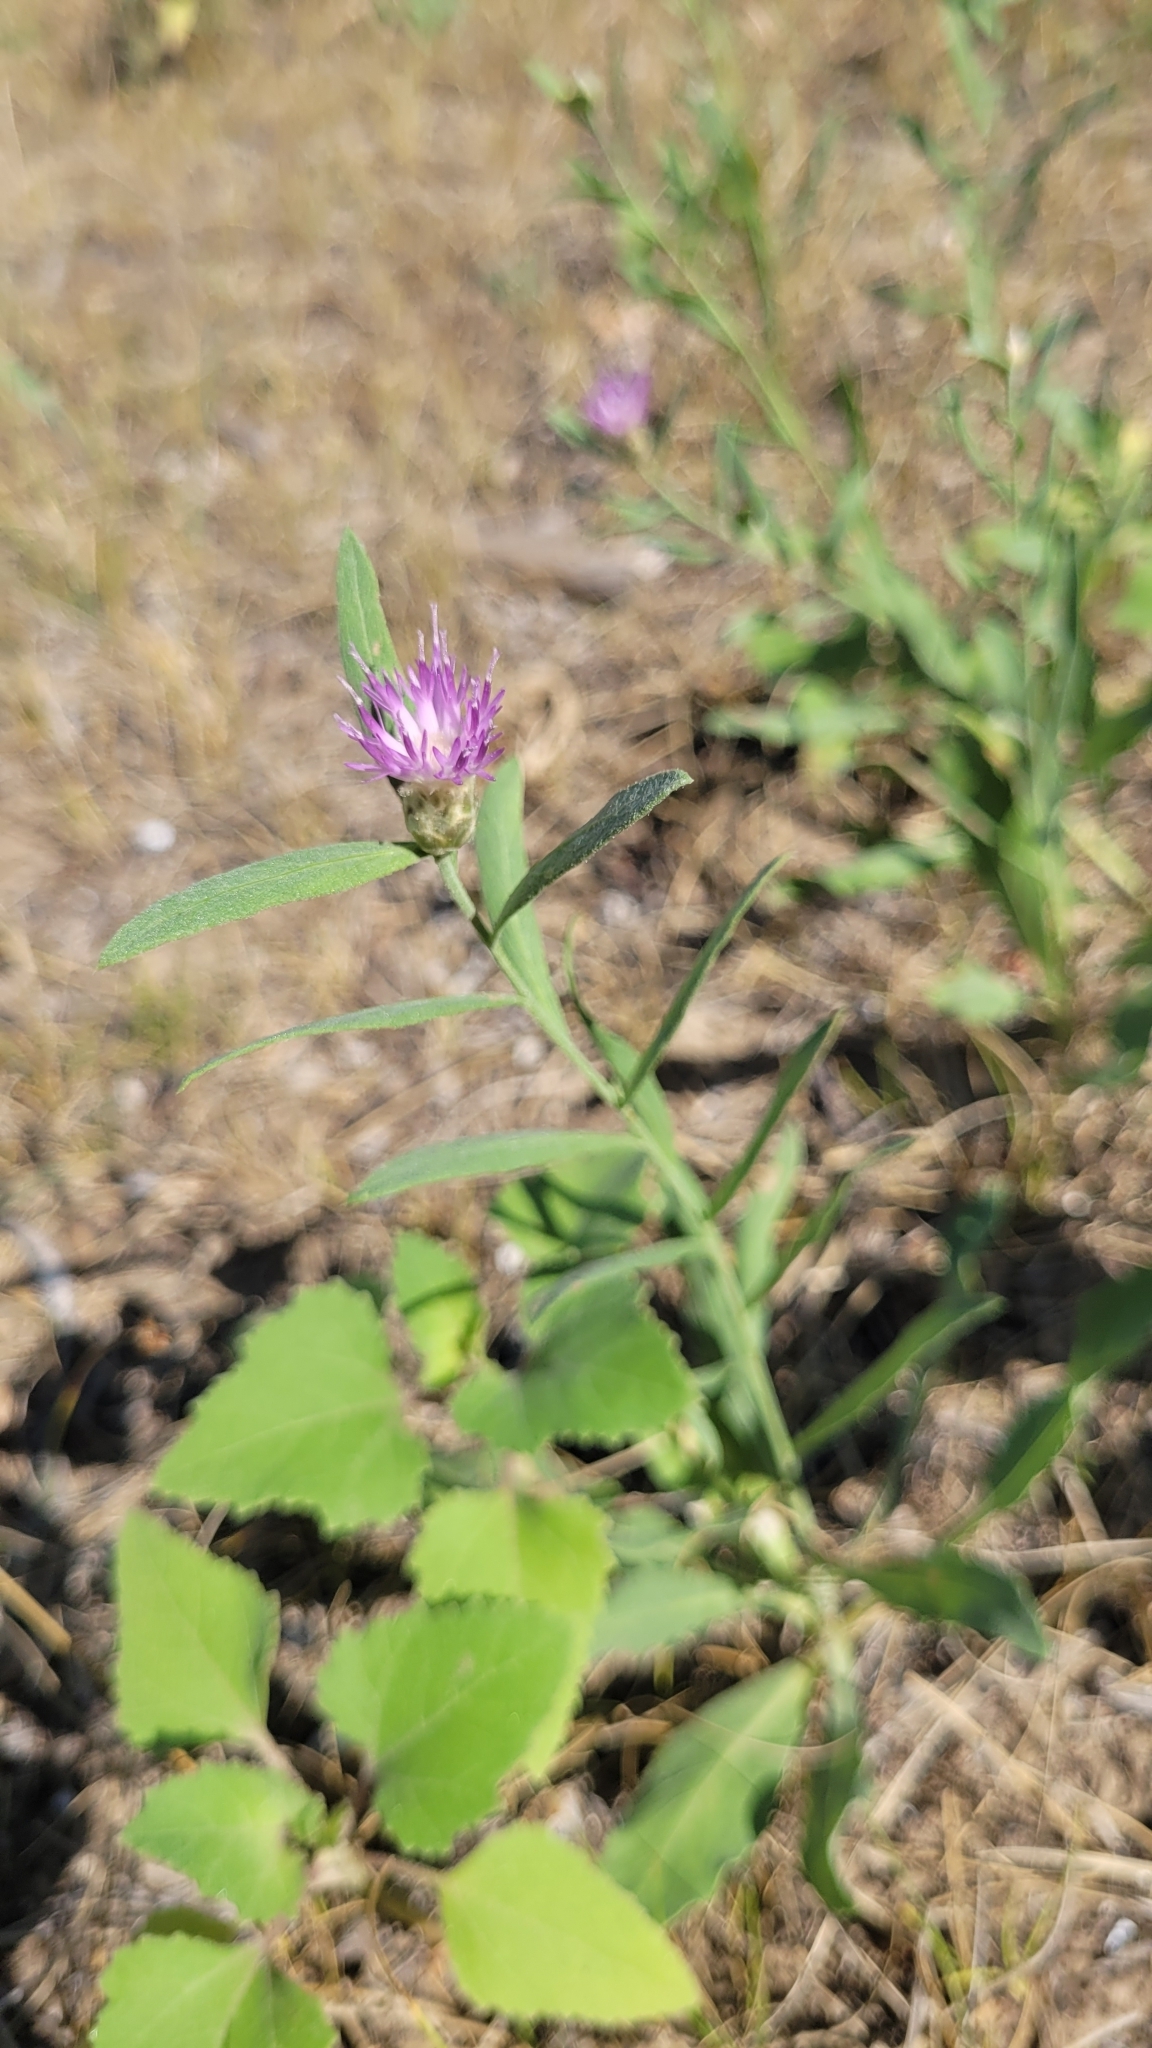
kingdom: Plantae
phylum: Tracheophyta
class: Magnoliopsida
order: Asterales
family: Asteraceae
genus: Leuzea
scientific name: Leuzea repens
